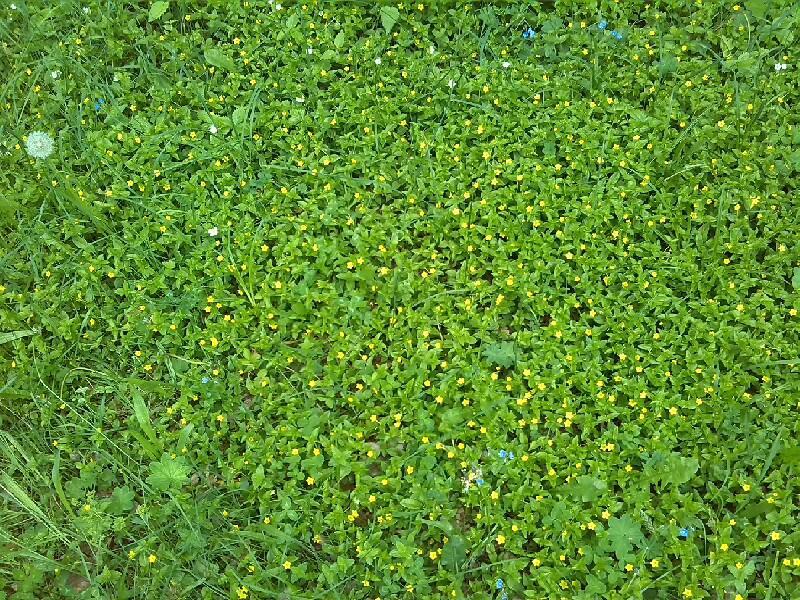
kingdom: Plantae
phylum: Tracheophyta
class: Magnoliopsida
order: Ericales
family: Primulaceae
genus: Lysimachia
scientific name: Lysimachia nemorum
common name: Yellow pimpernel
